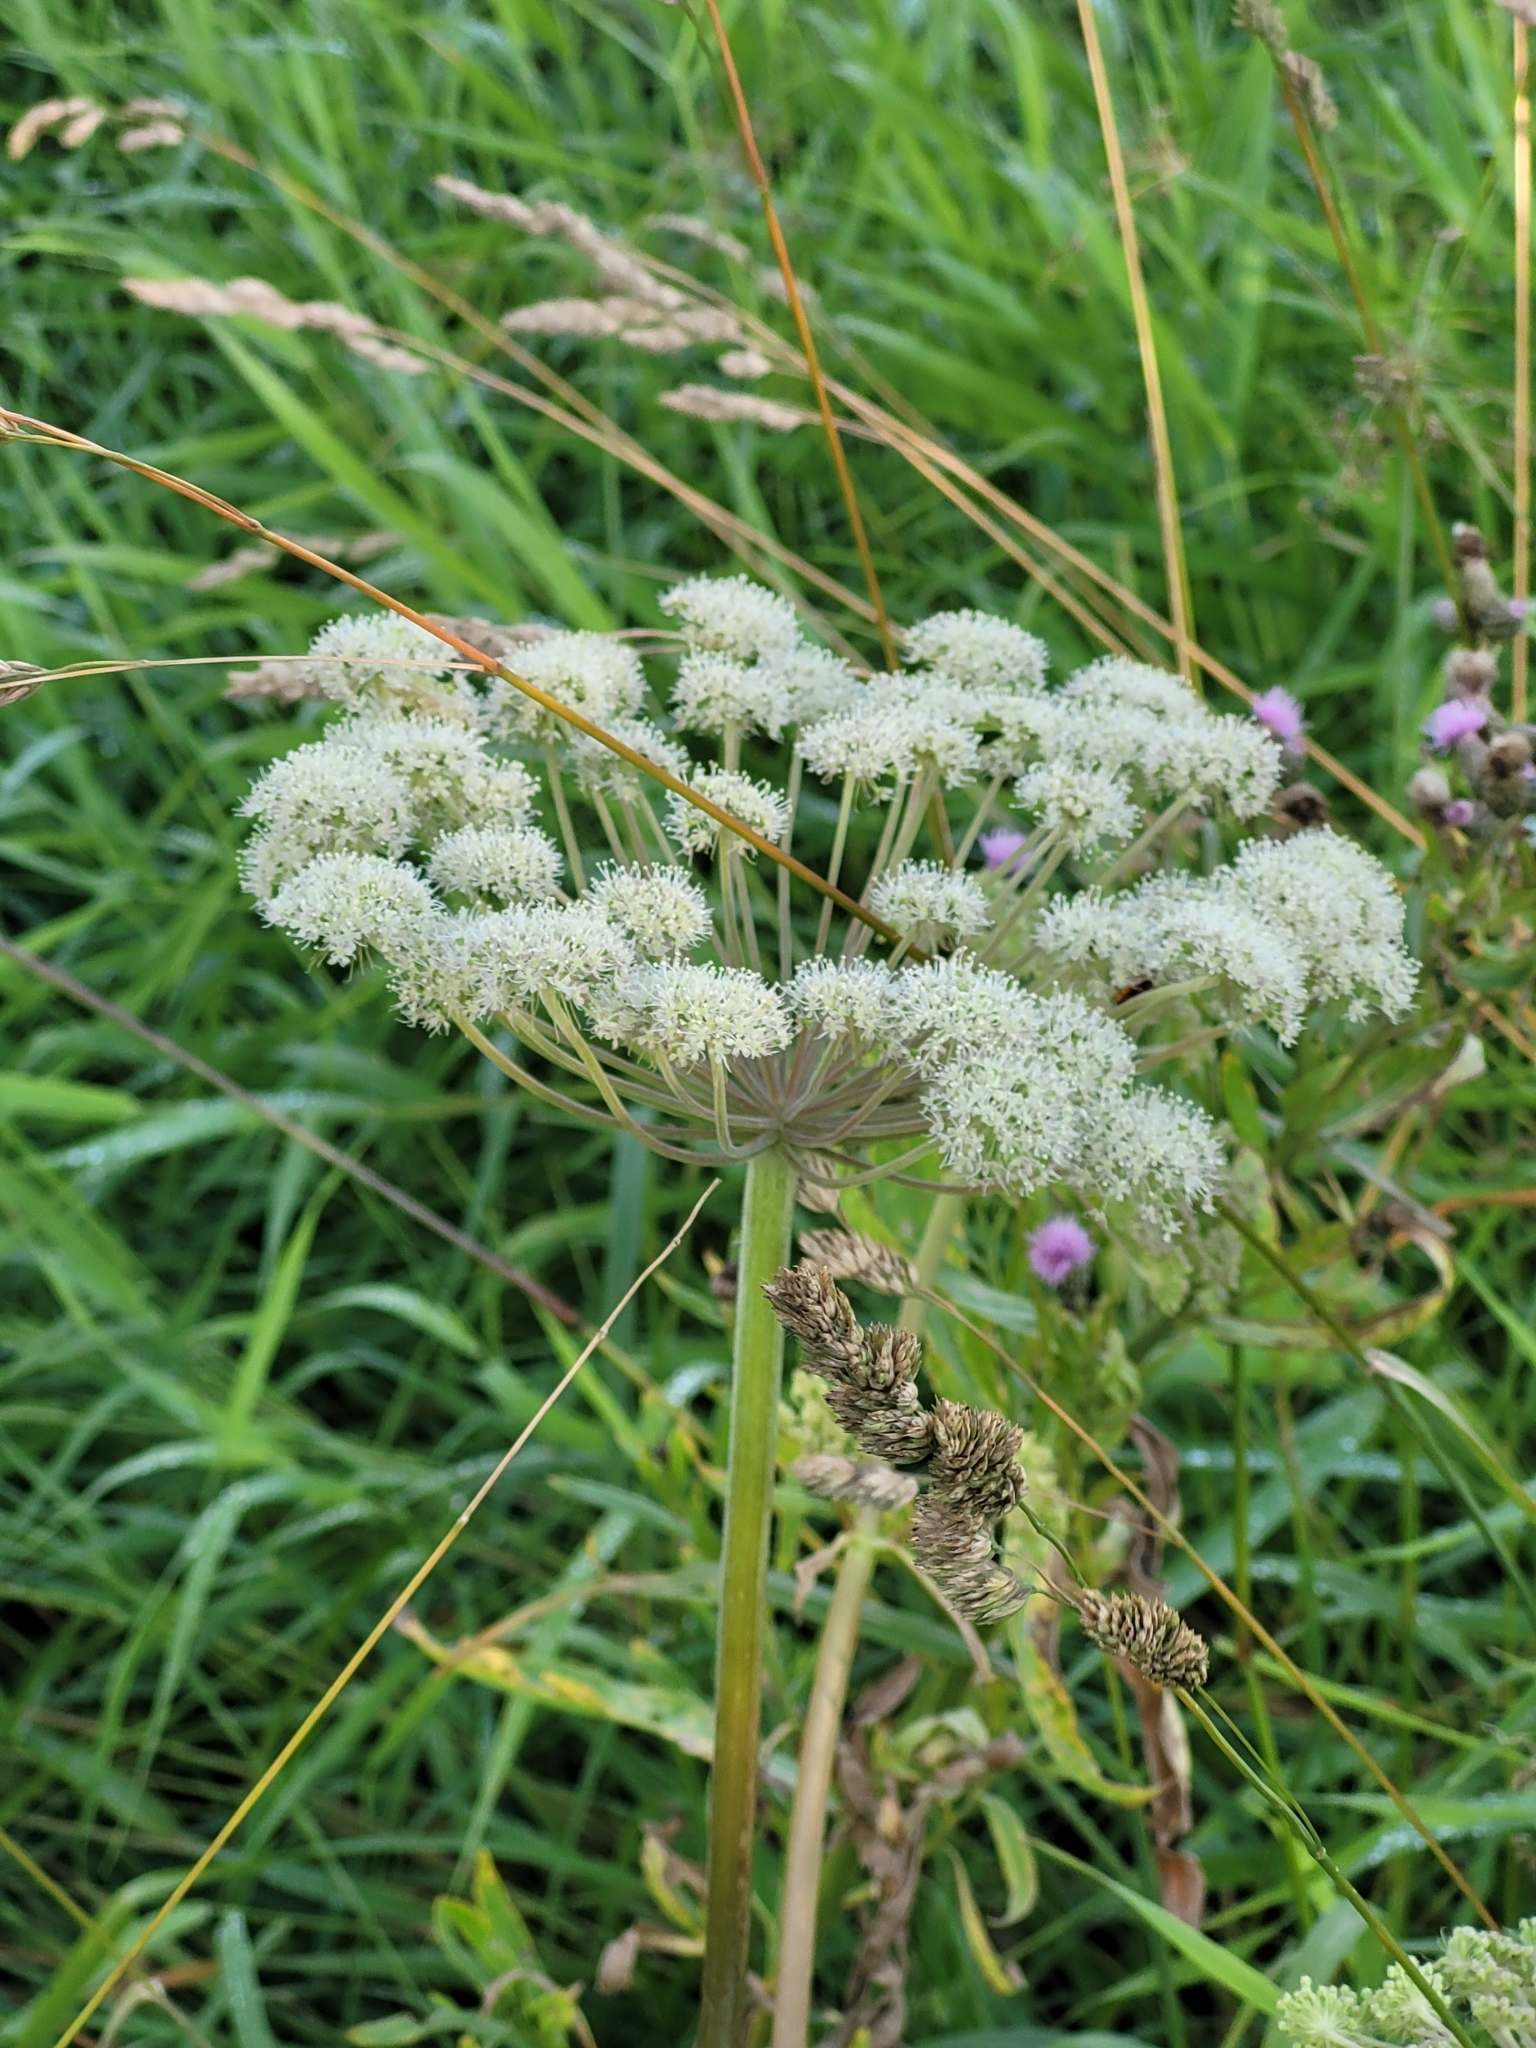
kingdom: Plantae
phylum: Tracheophyta
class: Magnoliopsida
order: Apiales
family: Apiaceae
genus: Angelica
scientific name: Angelica sylvestris
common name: Wild angelica
